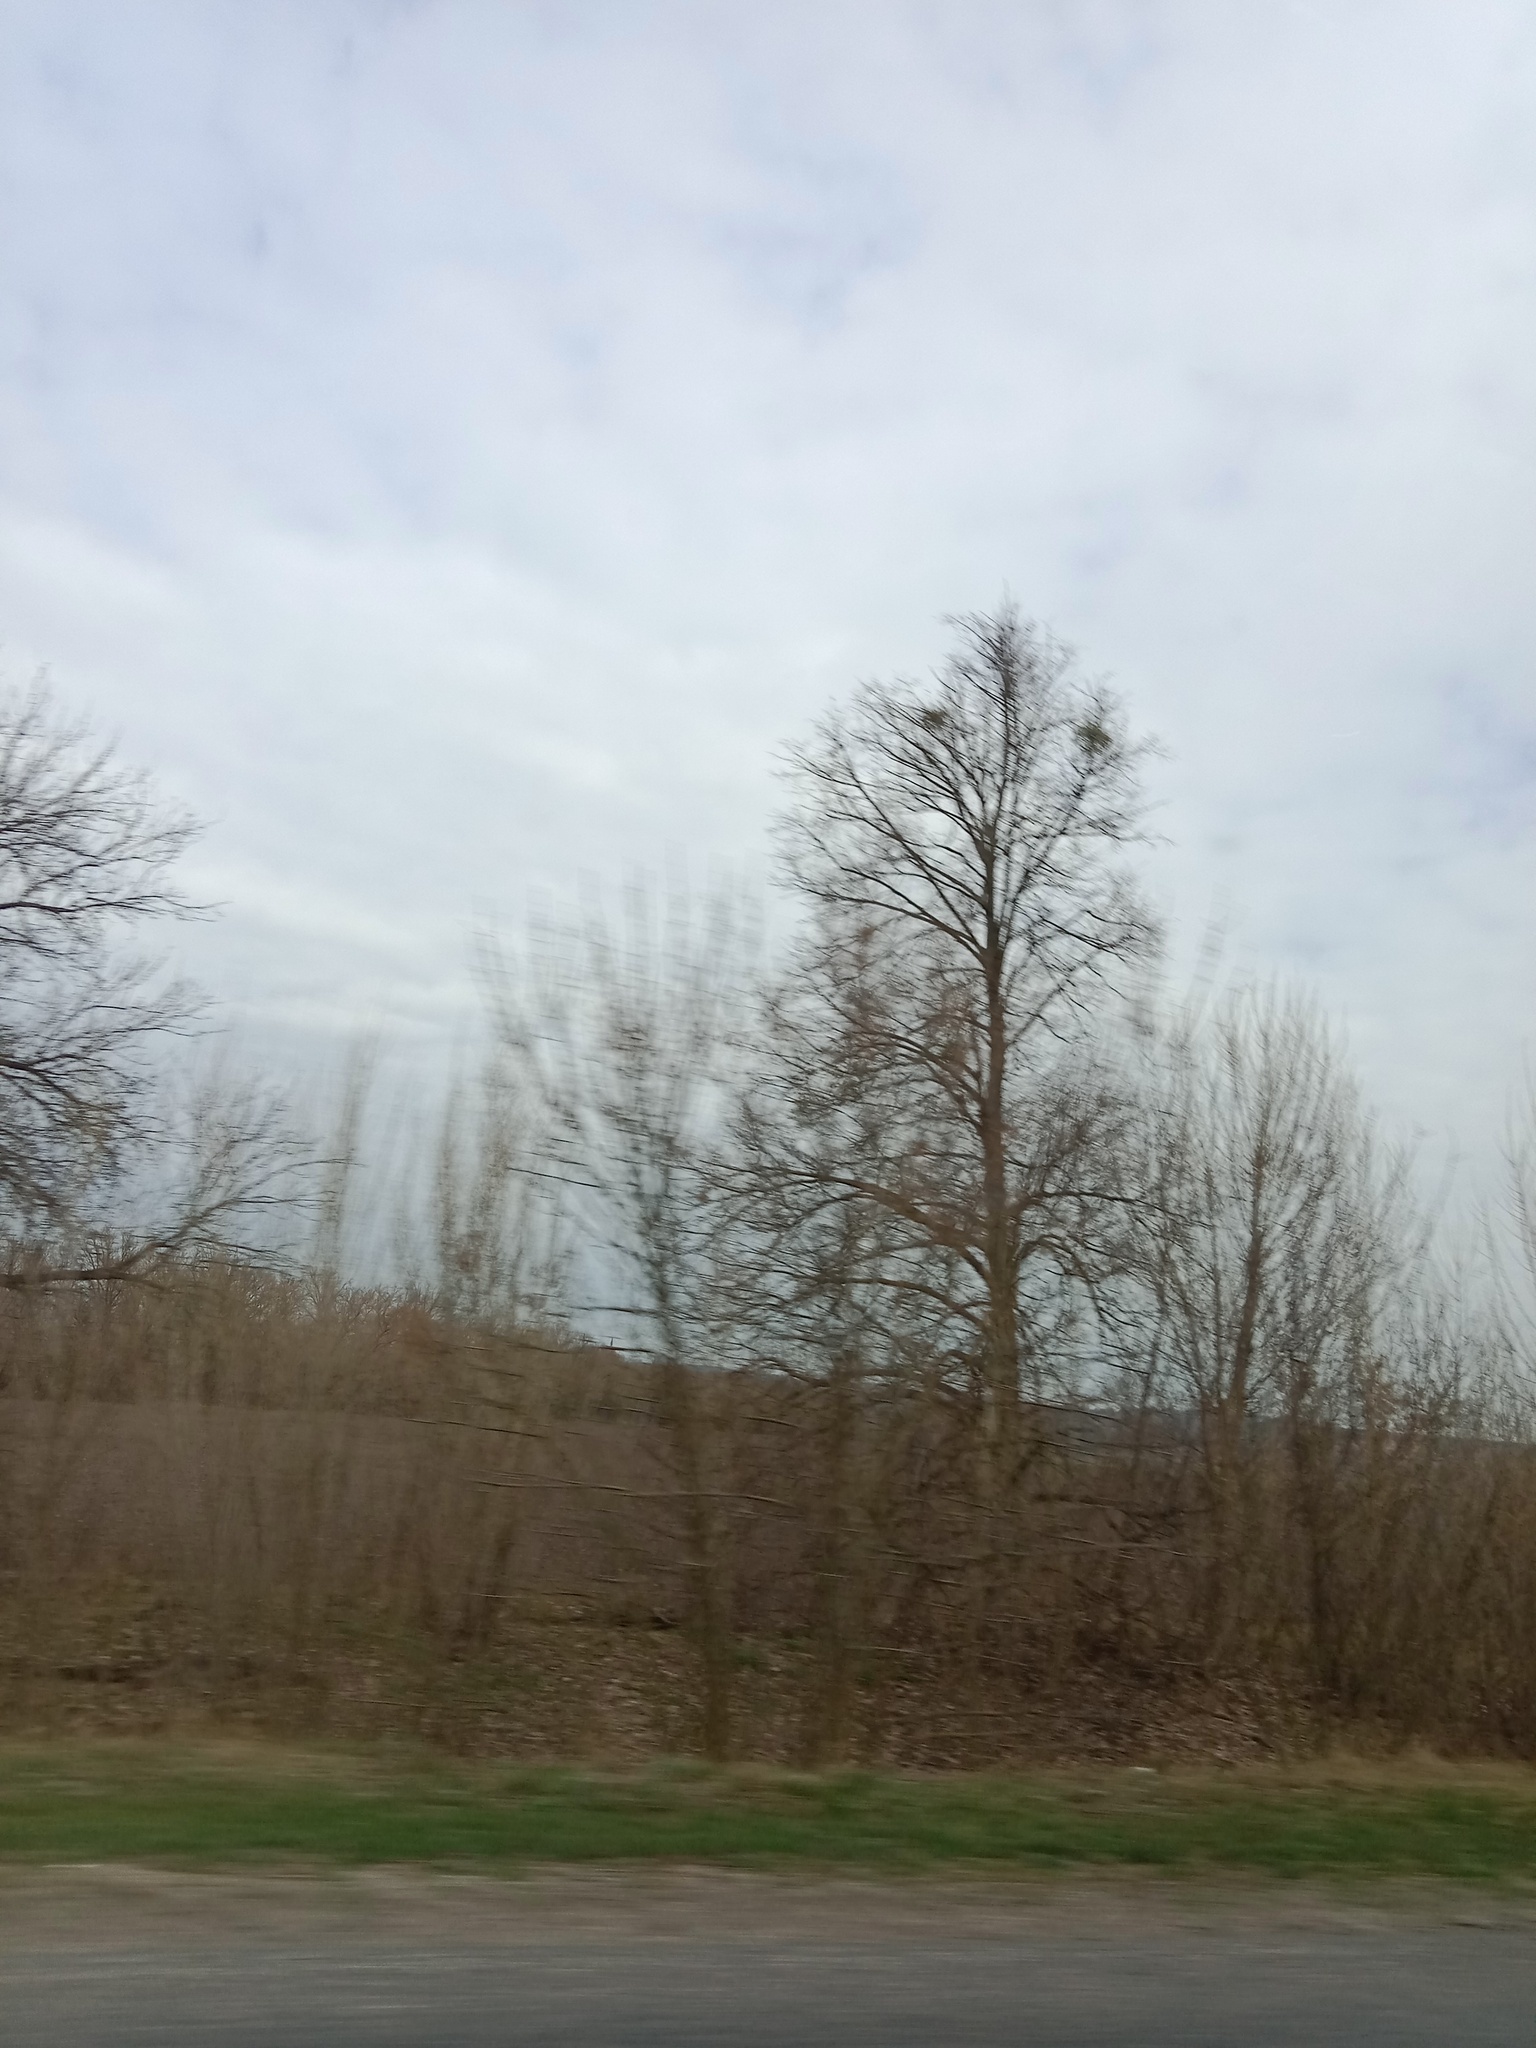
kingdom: Plantae
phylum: Tracheophyta
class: Magnoliopsida
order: Santalales
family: Viscaceae
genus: Viscum
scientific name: Viscum album
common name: Mistletoe
